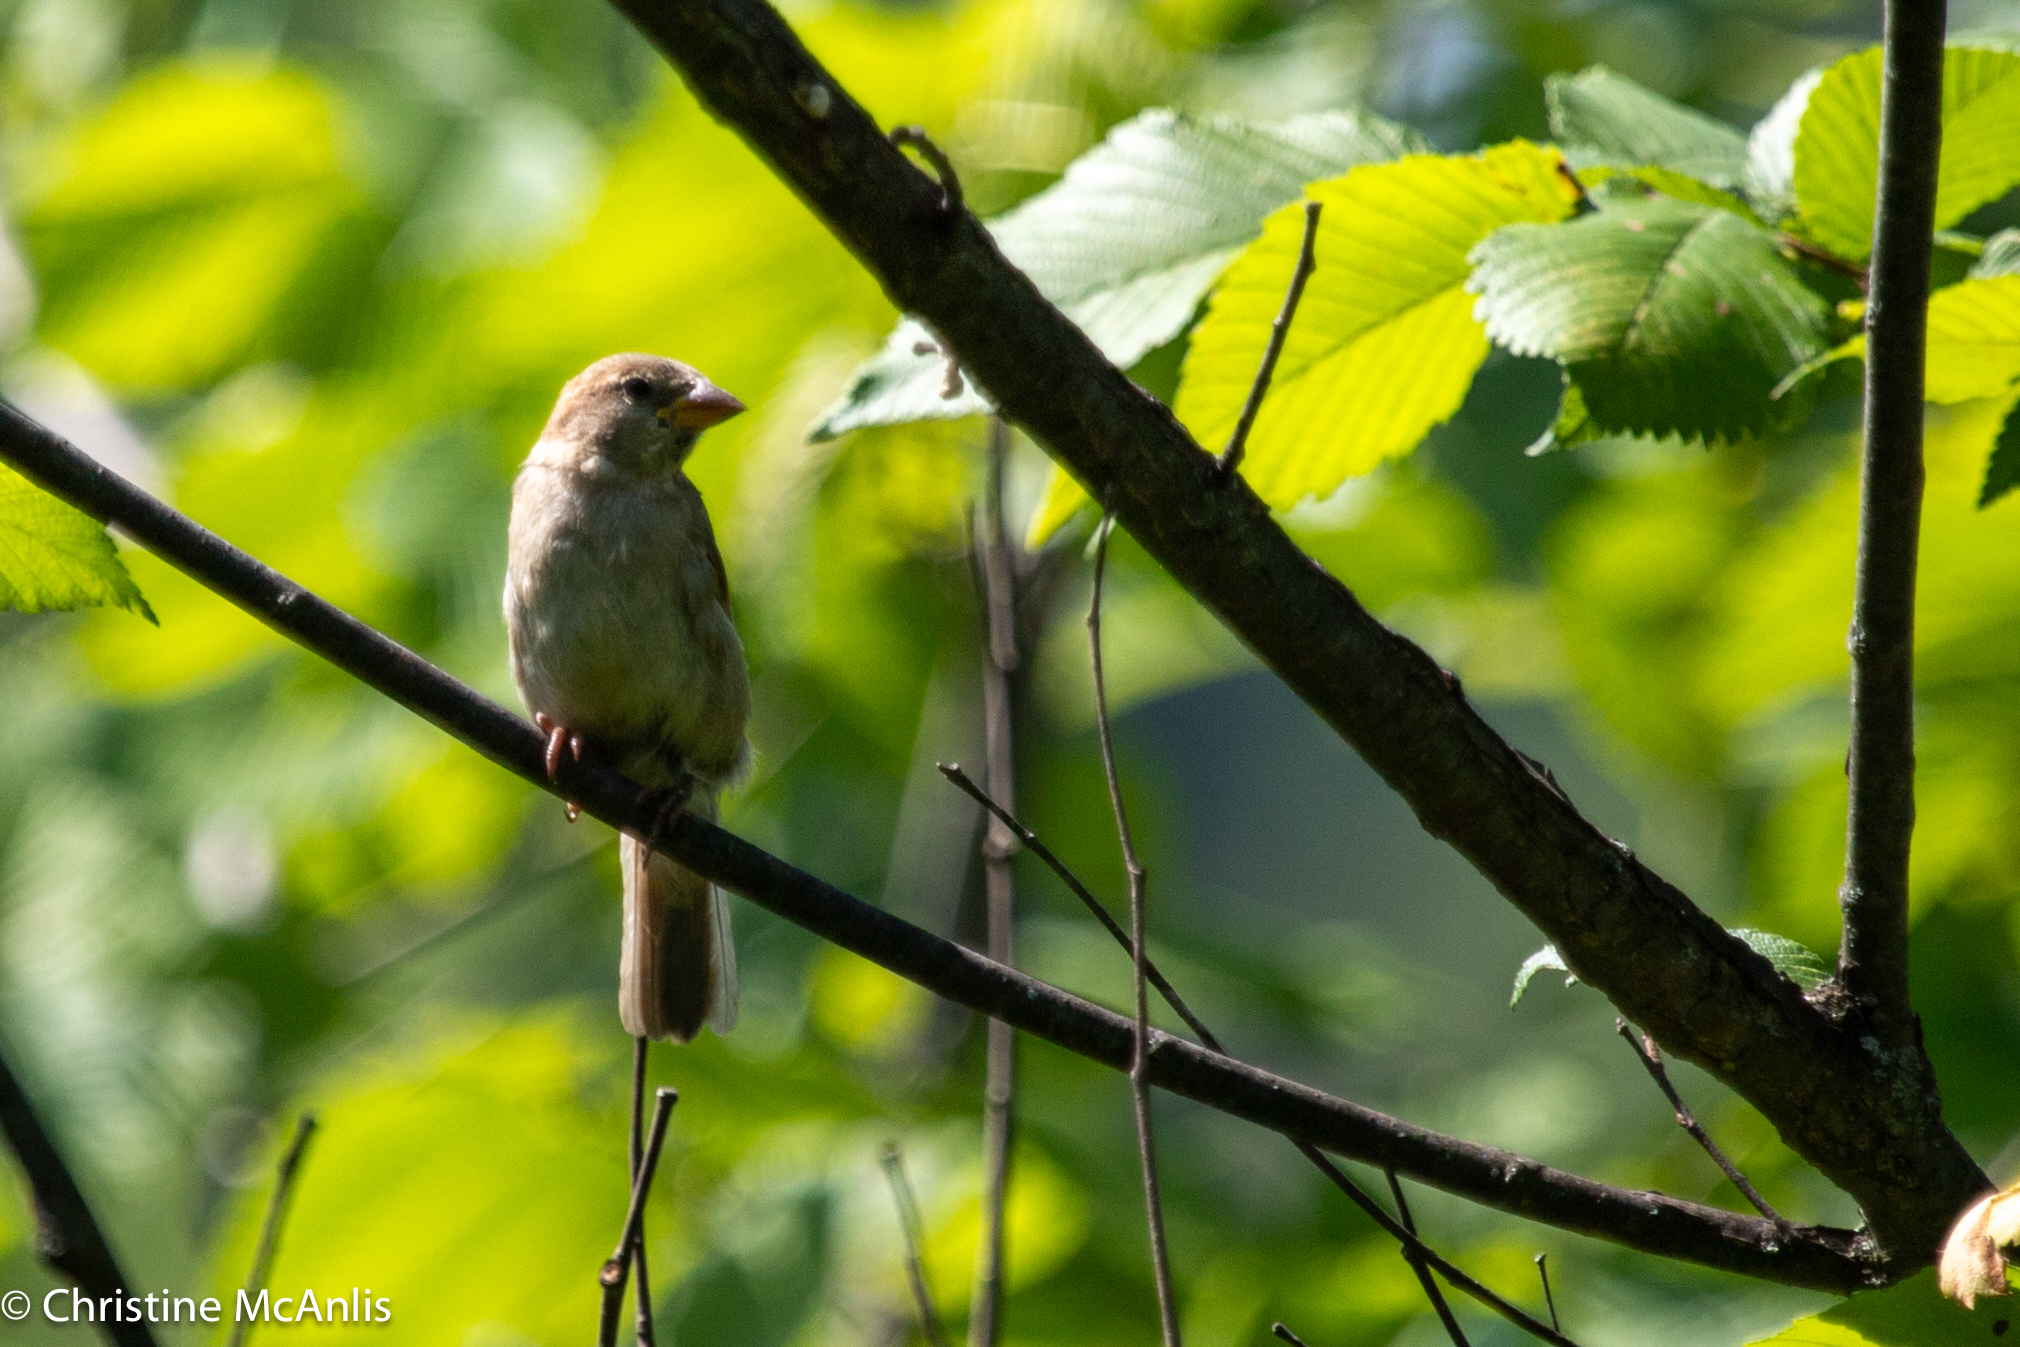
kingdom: Animalia
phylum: Chordata
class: Aves
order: Passeriformes
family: Passeridae
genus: Passer
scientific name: Passer domesticus
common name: House sparrow
